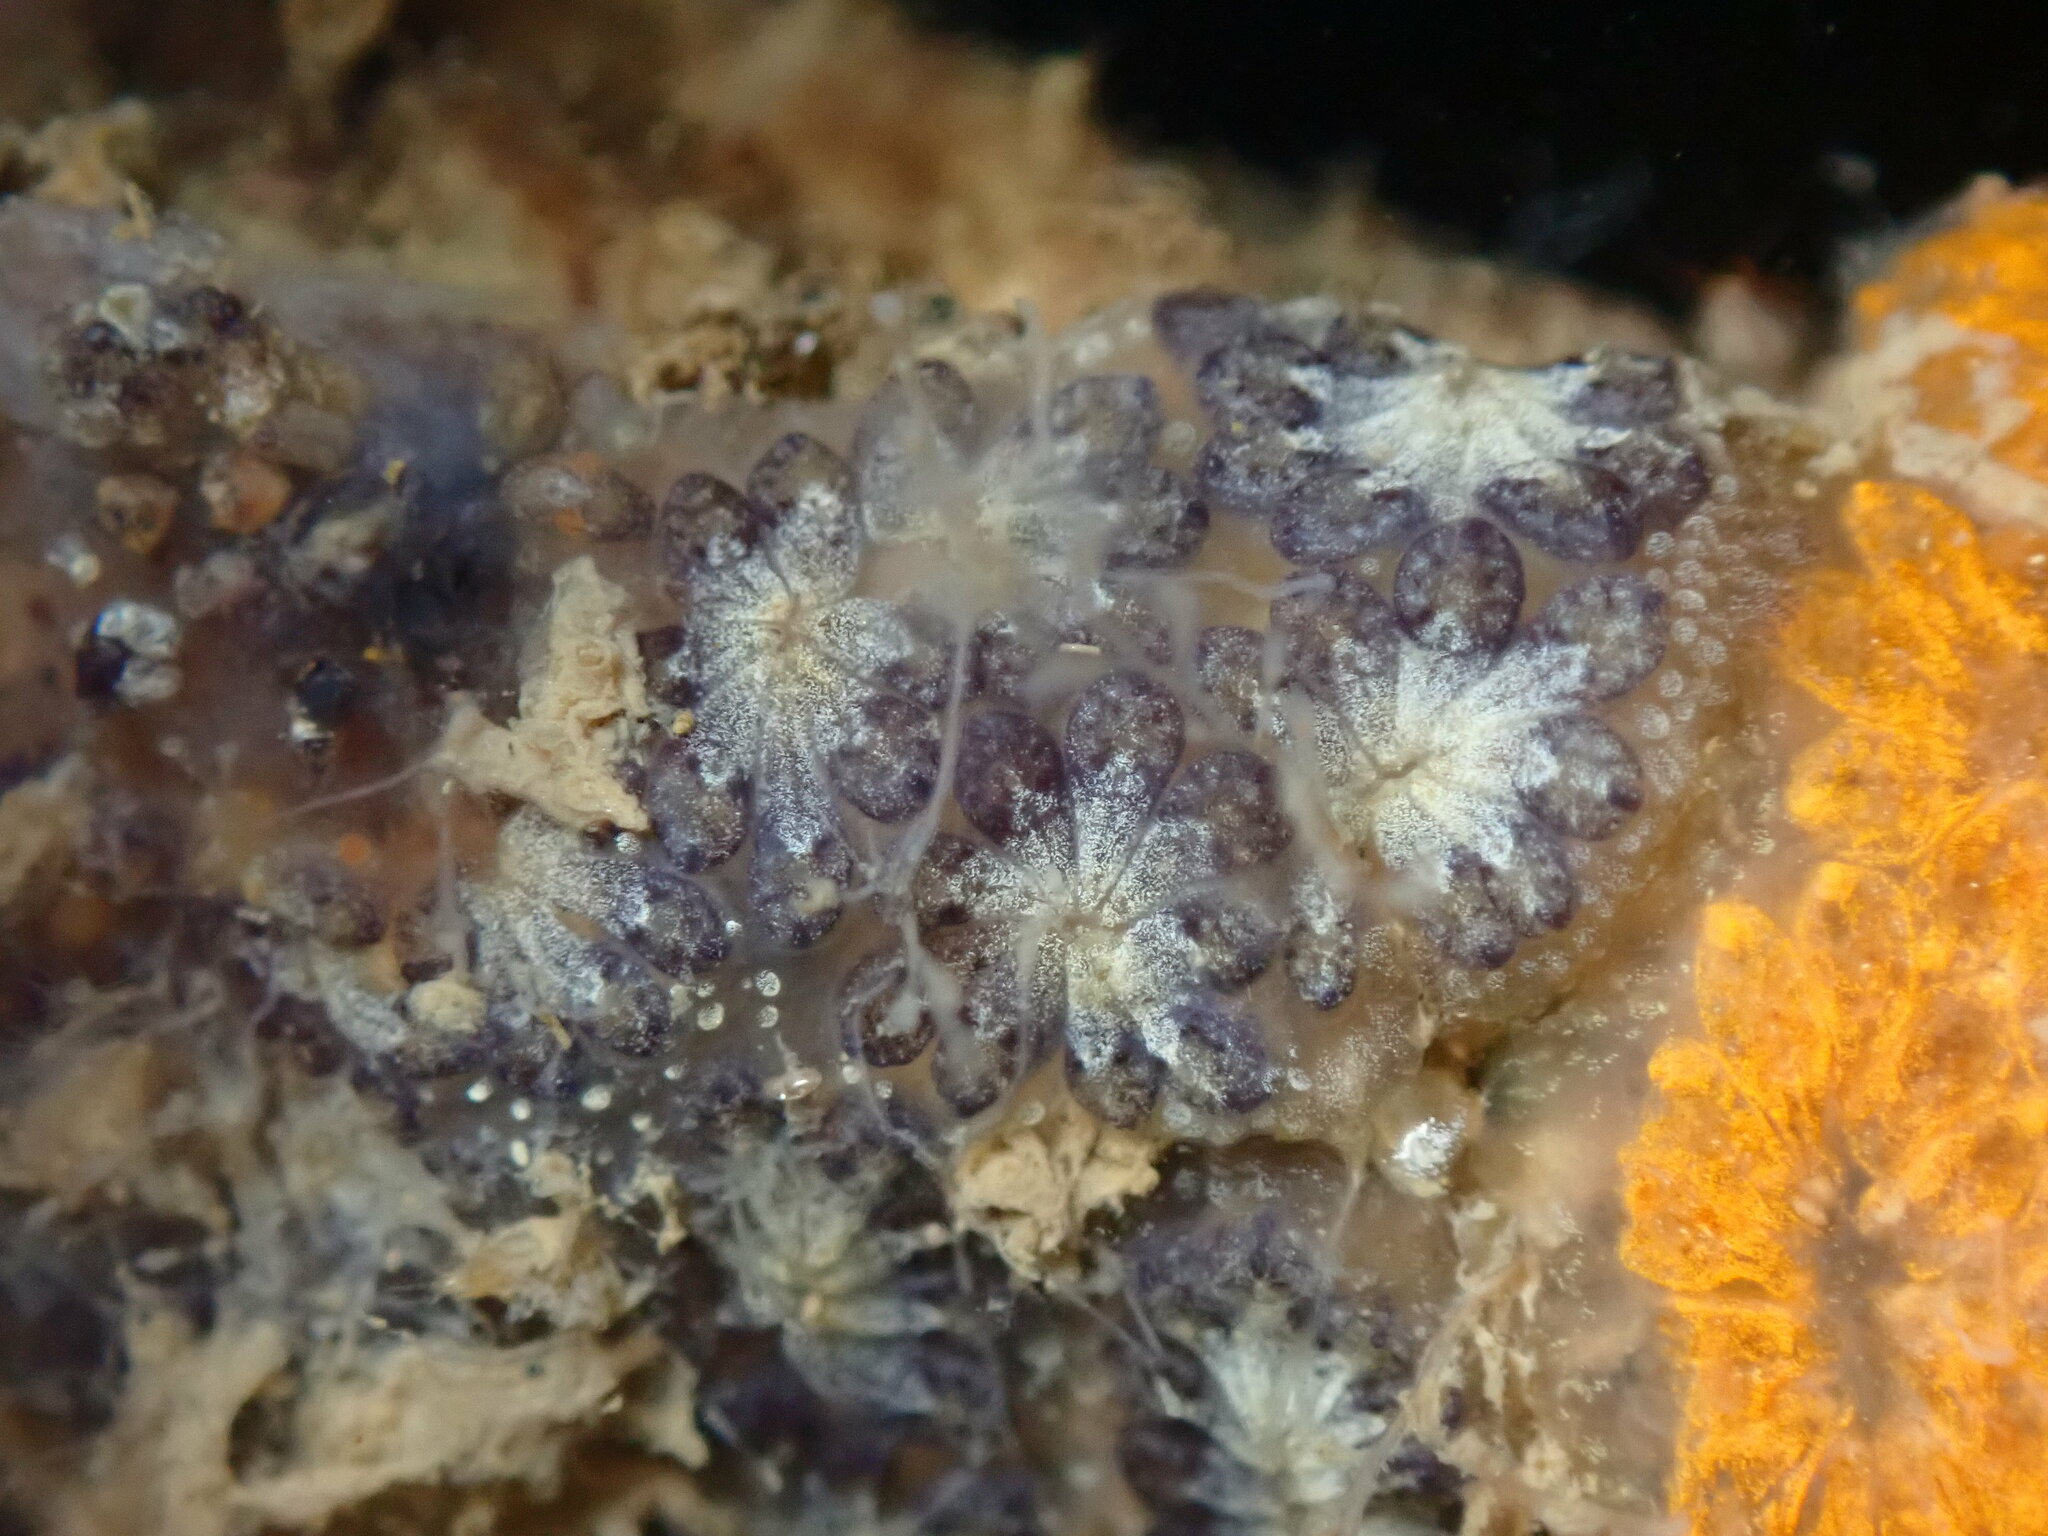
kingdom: Animalia
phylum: Chordata
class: Ascidiacea
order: Stolidobranchia
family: Styelidae
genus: Botryllus
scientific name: Botryllus schlosseri
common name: Golden star tunicate
